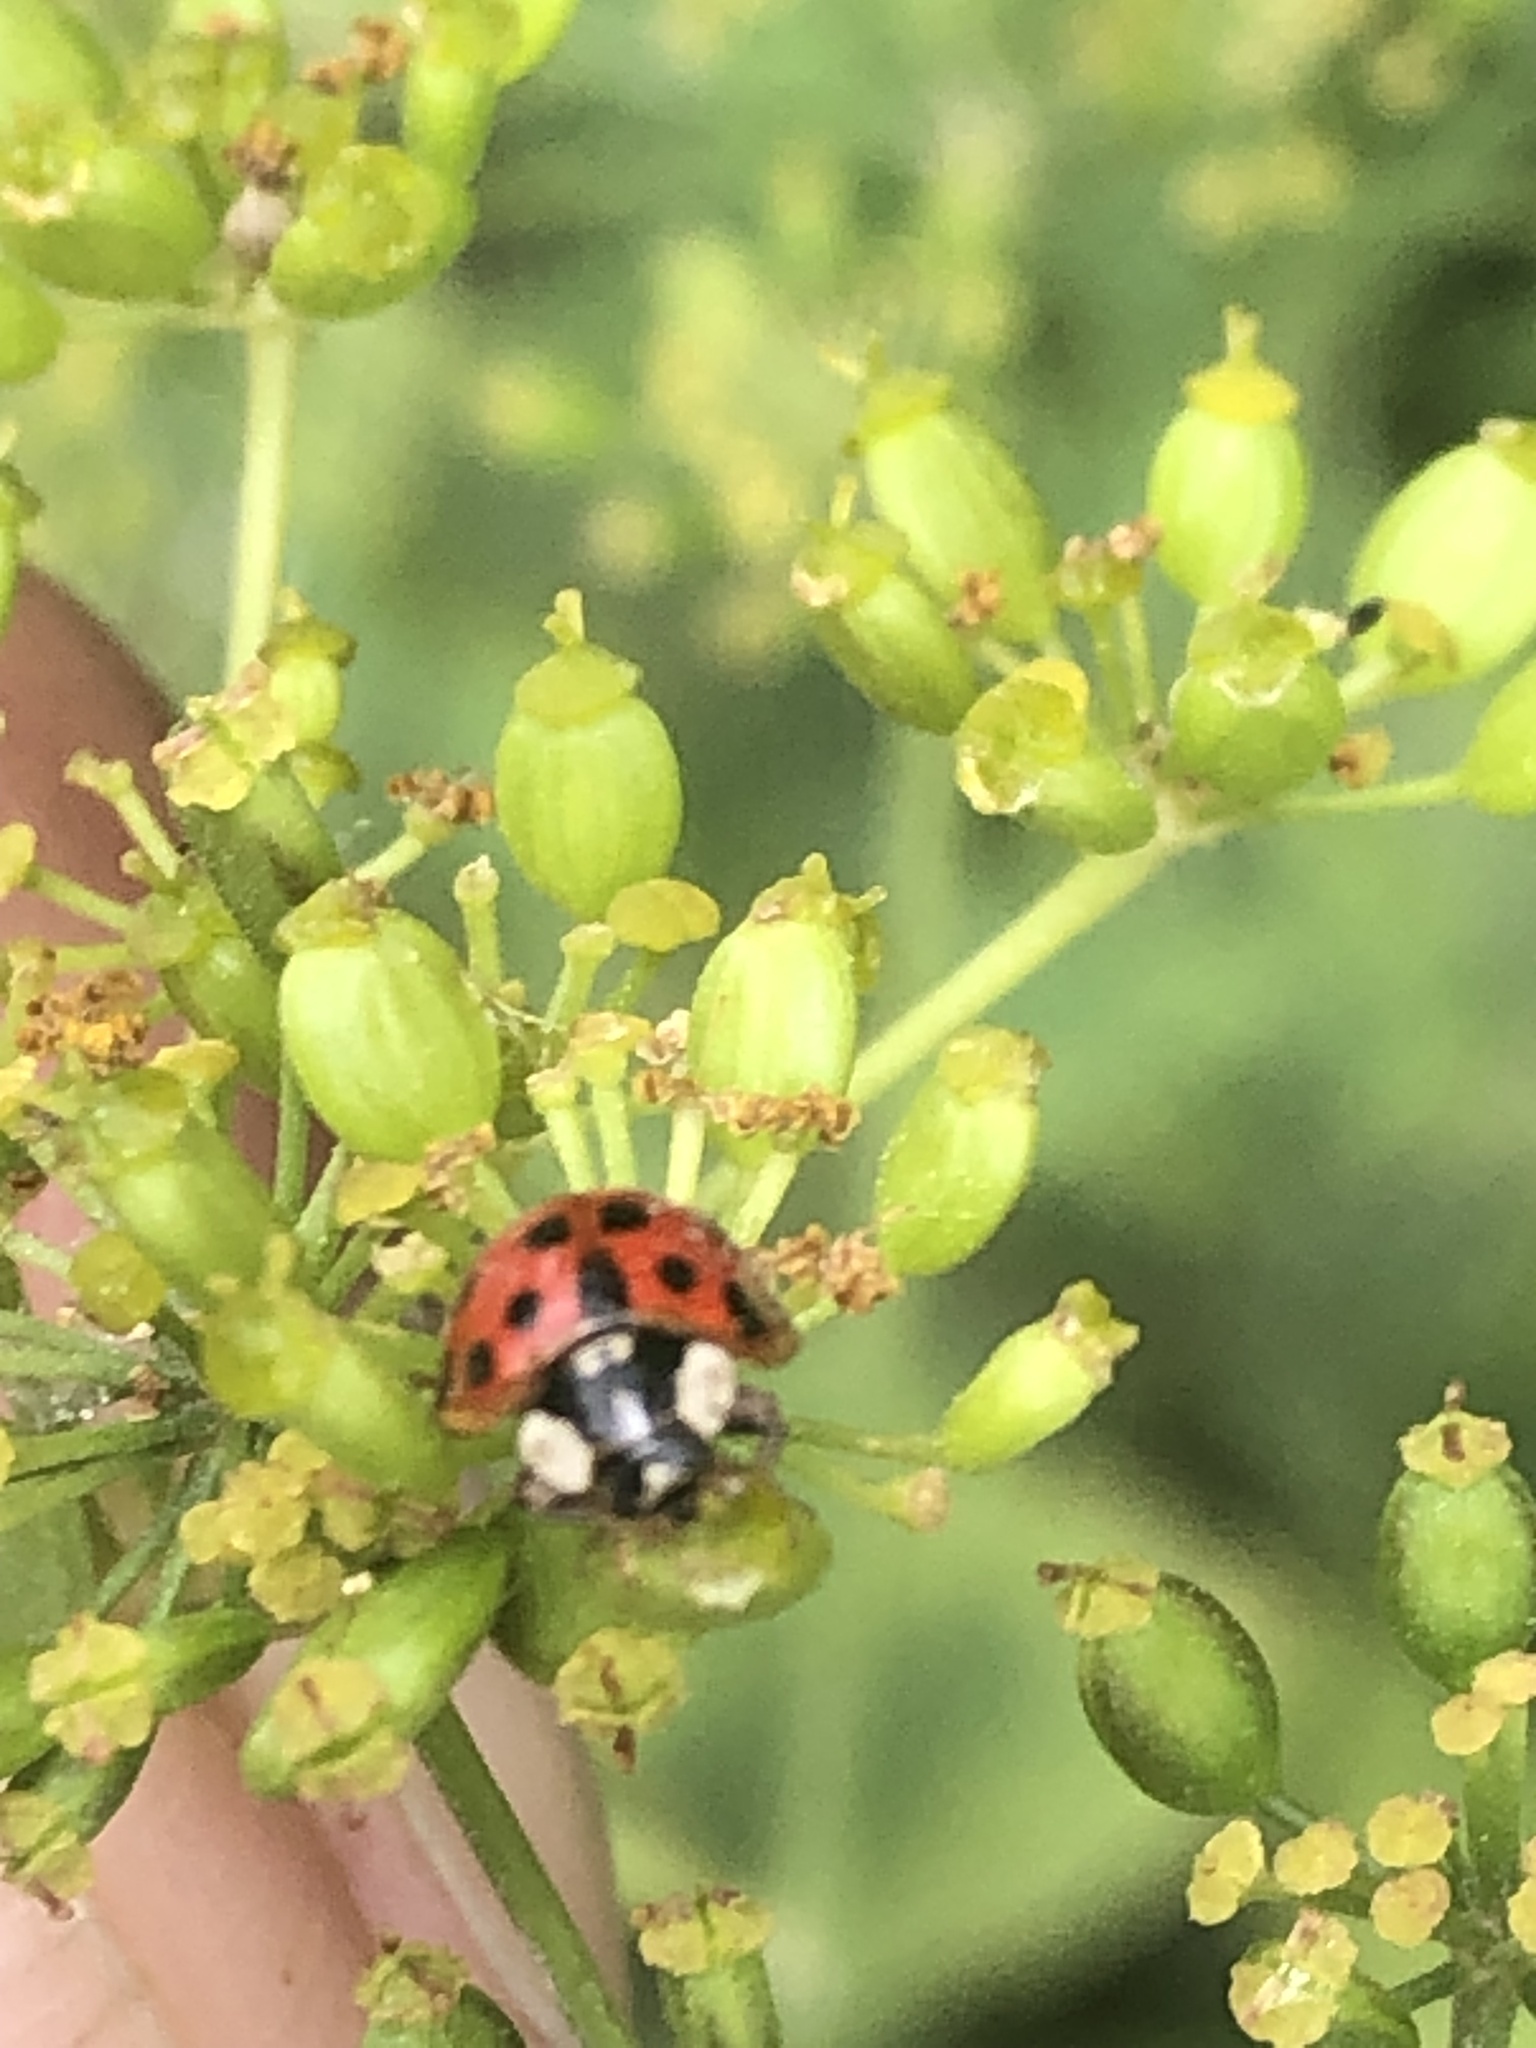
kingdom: Animalia
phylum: Arthropoda
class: Insecta
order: Coleoptera
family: Coccinellidae
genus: Harmonia
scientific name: Harmonia axyridis
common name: Harlequin ladybird
